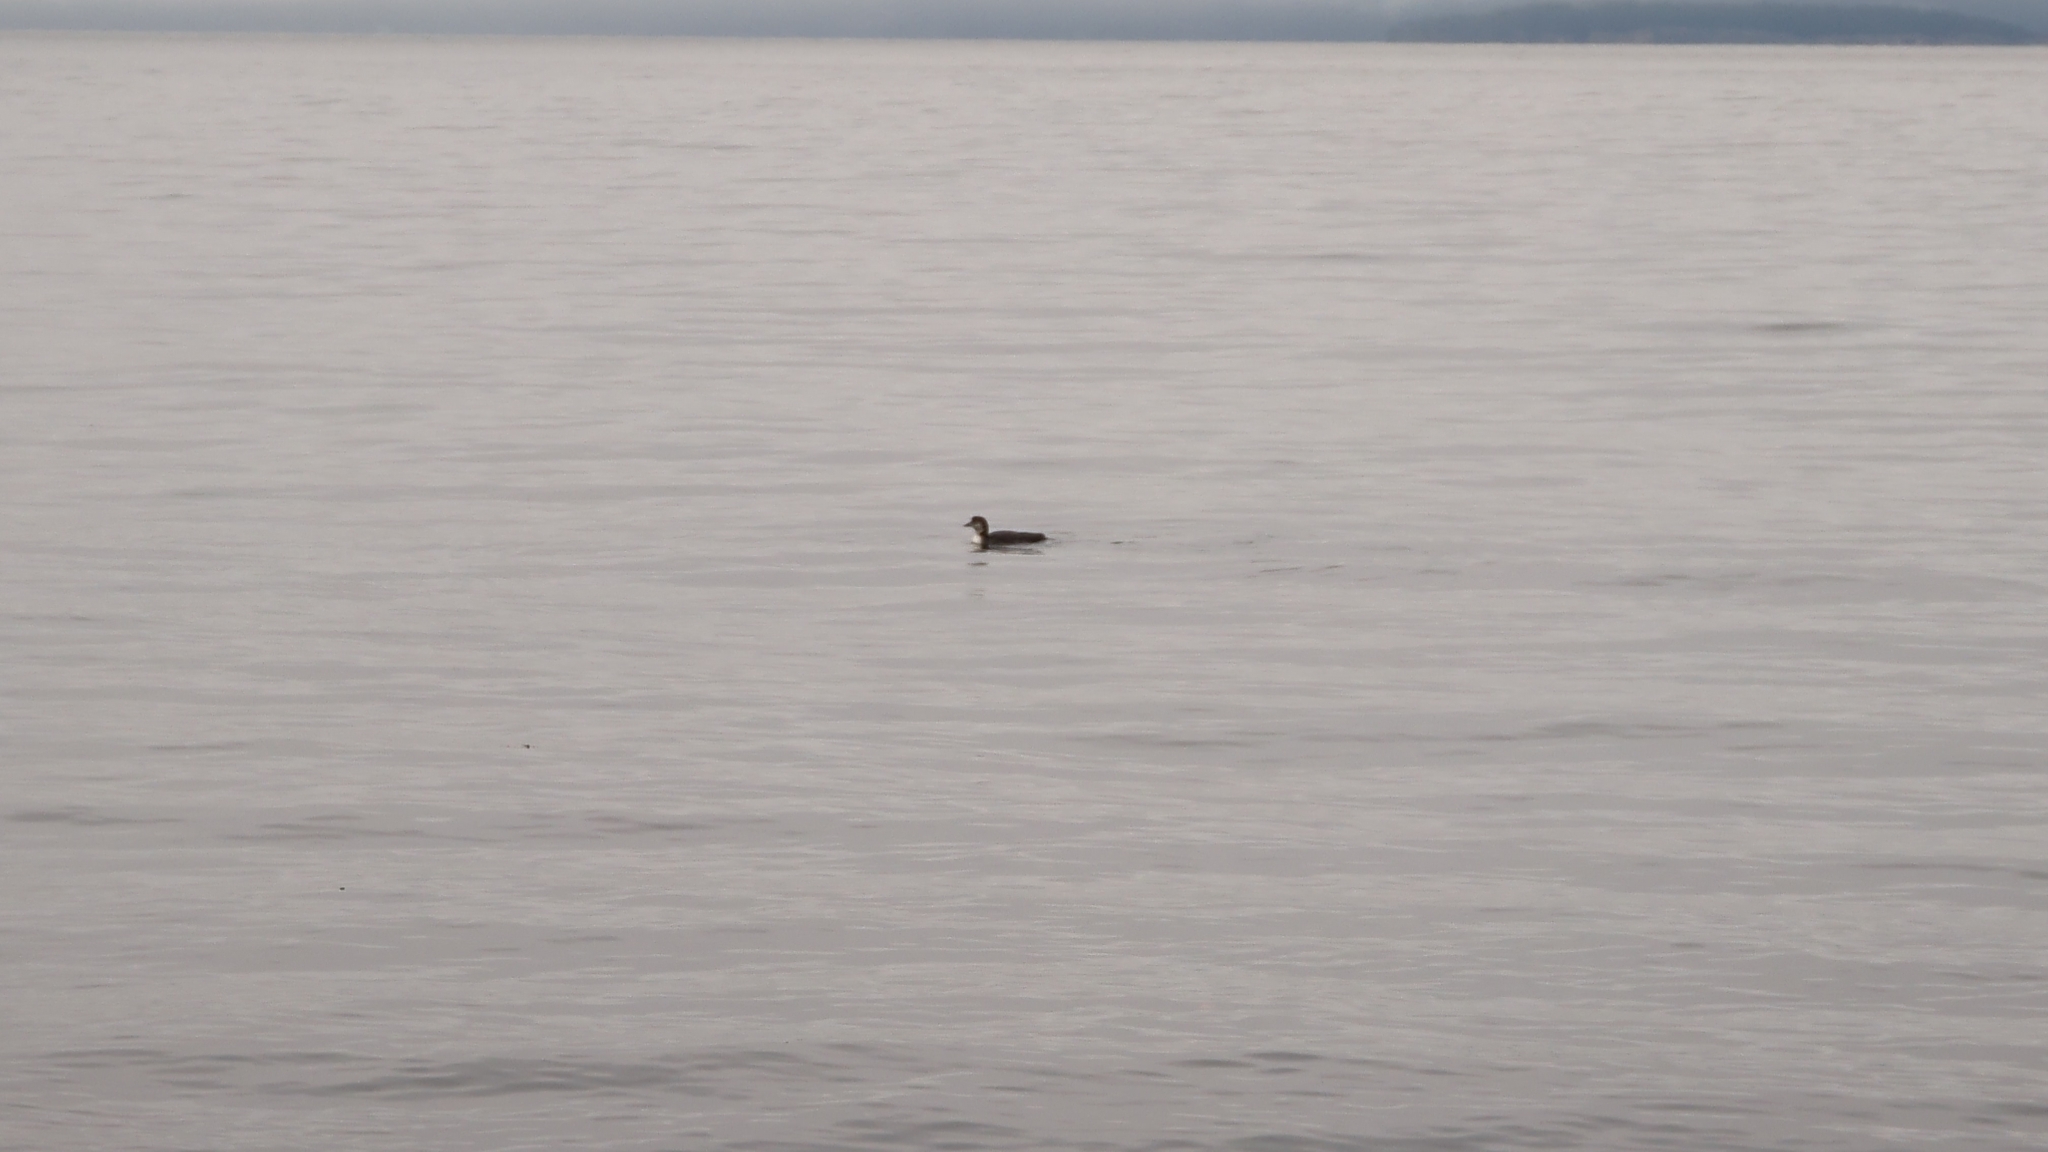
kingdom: Animalia
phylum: Chordata
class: Aves
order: Gaviiformes
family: Gaviidae
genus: Gavia
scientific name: Gavia immer
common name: Common loon
